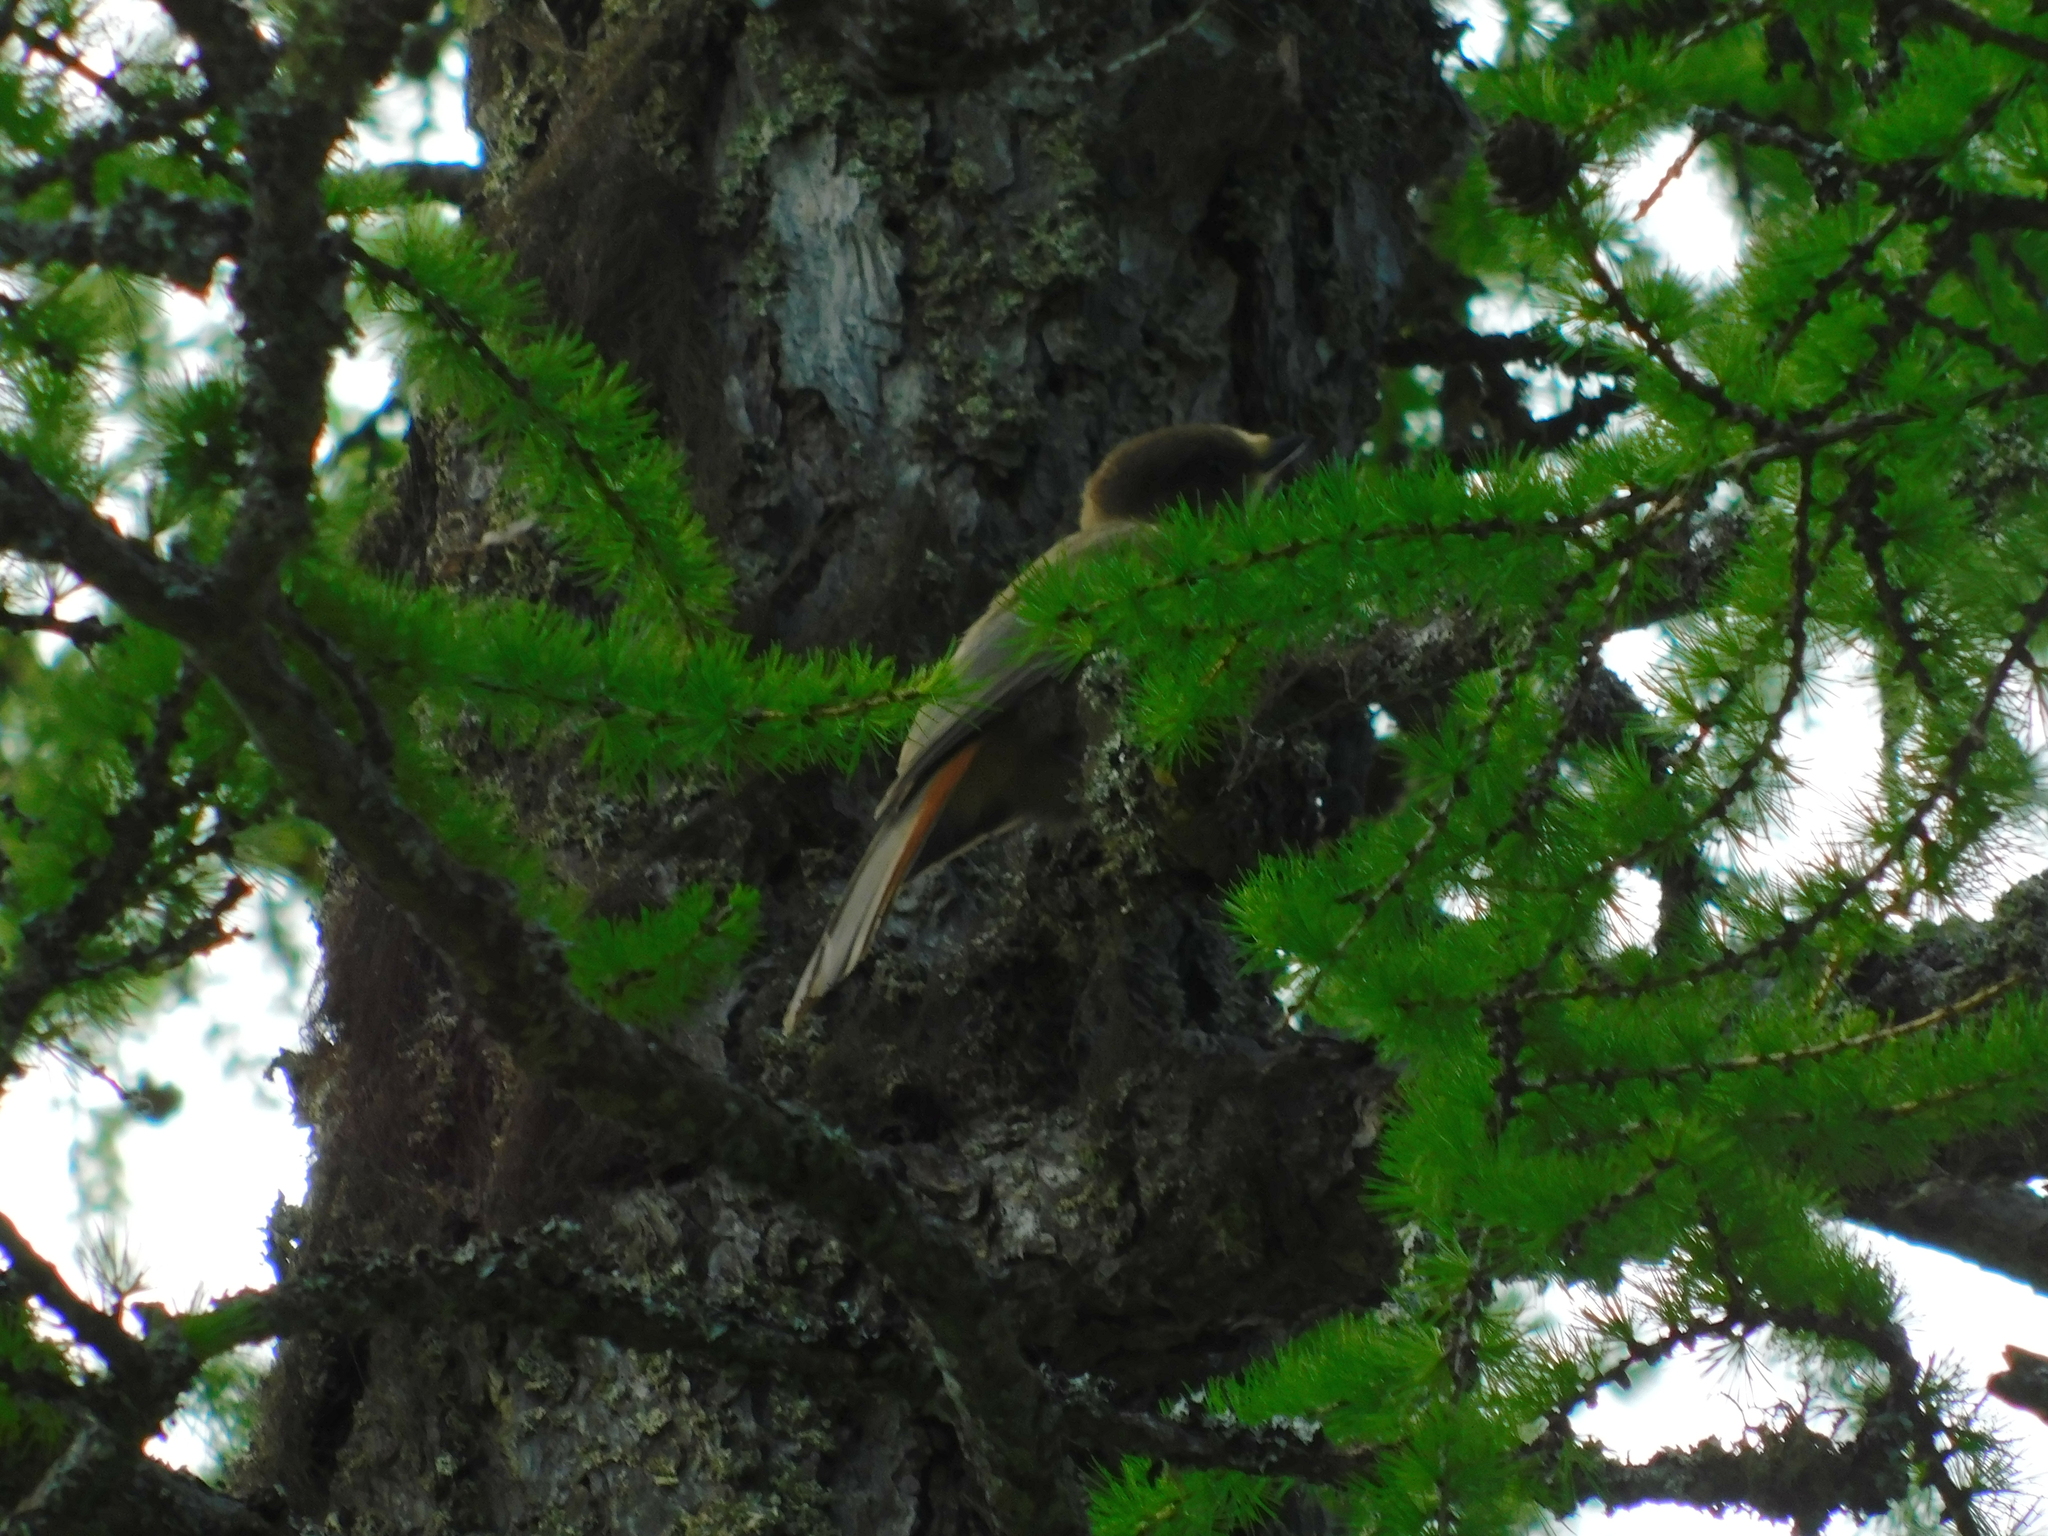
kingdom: Animalia
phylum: Chordata
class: Aves
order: Passeriformes
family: Corvidae
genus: Perisoreus
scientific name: Perisoreus infaustus
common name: Siberian jay
